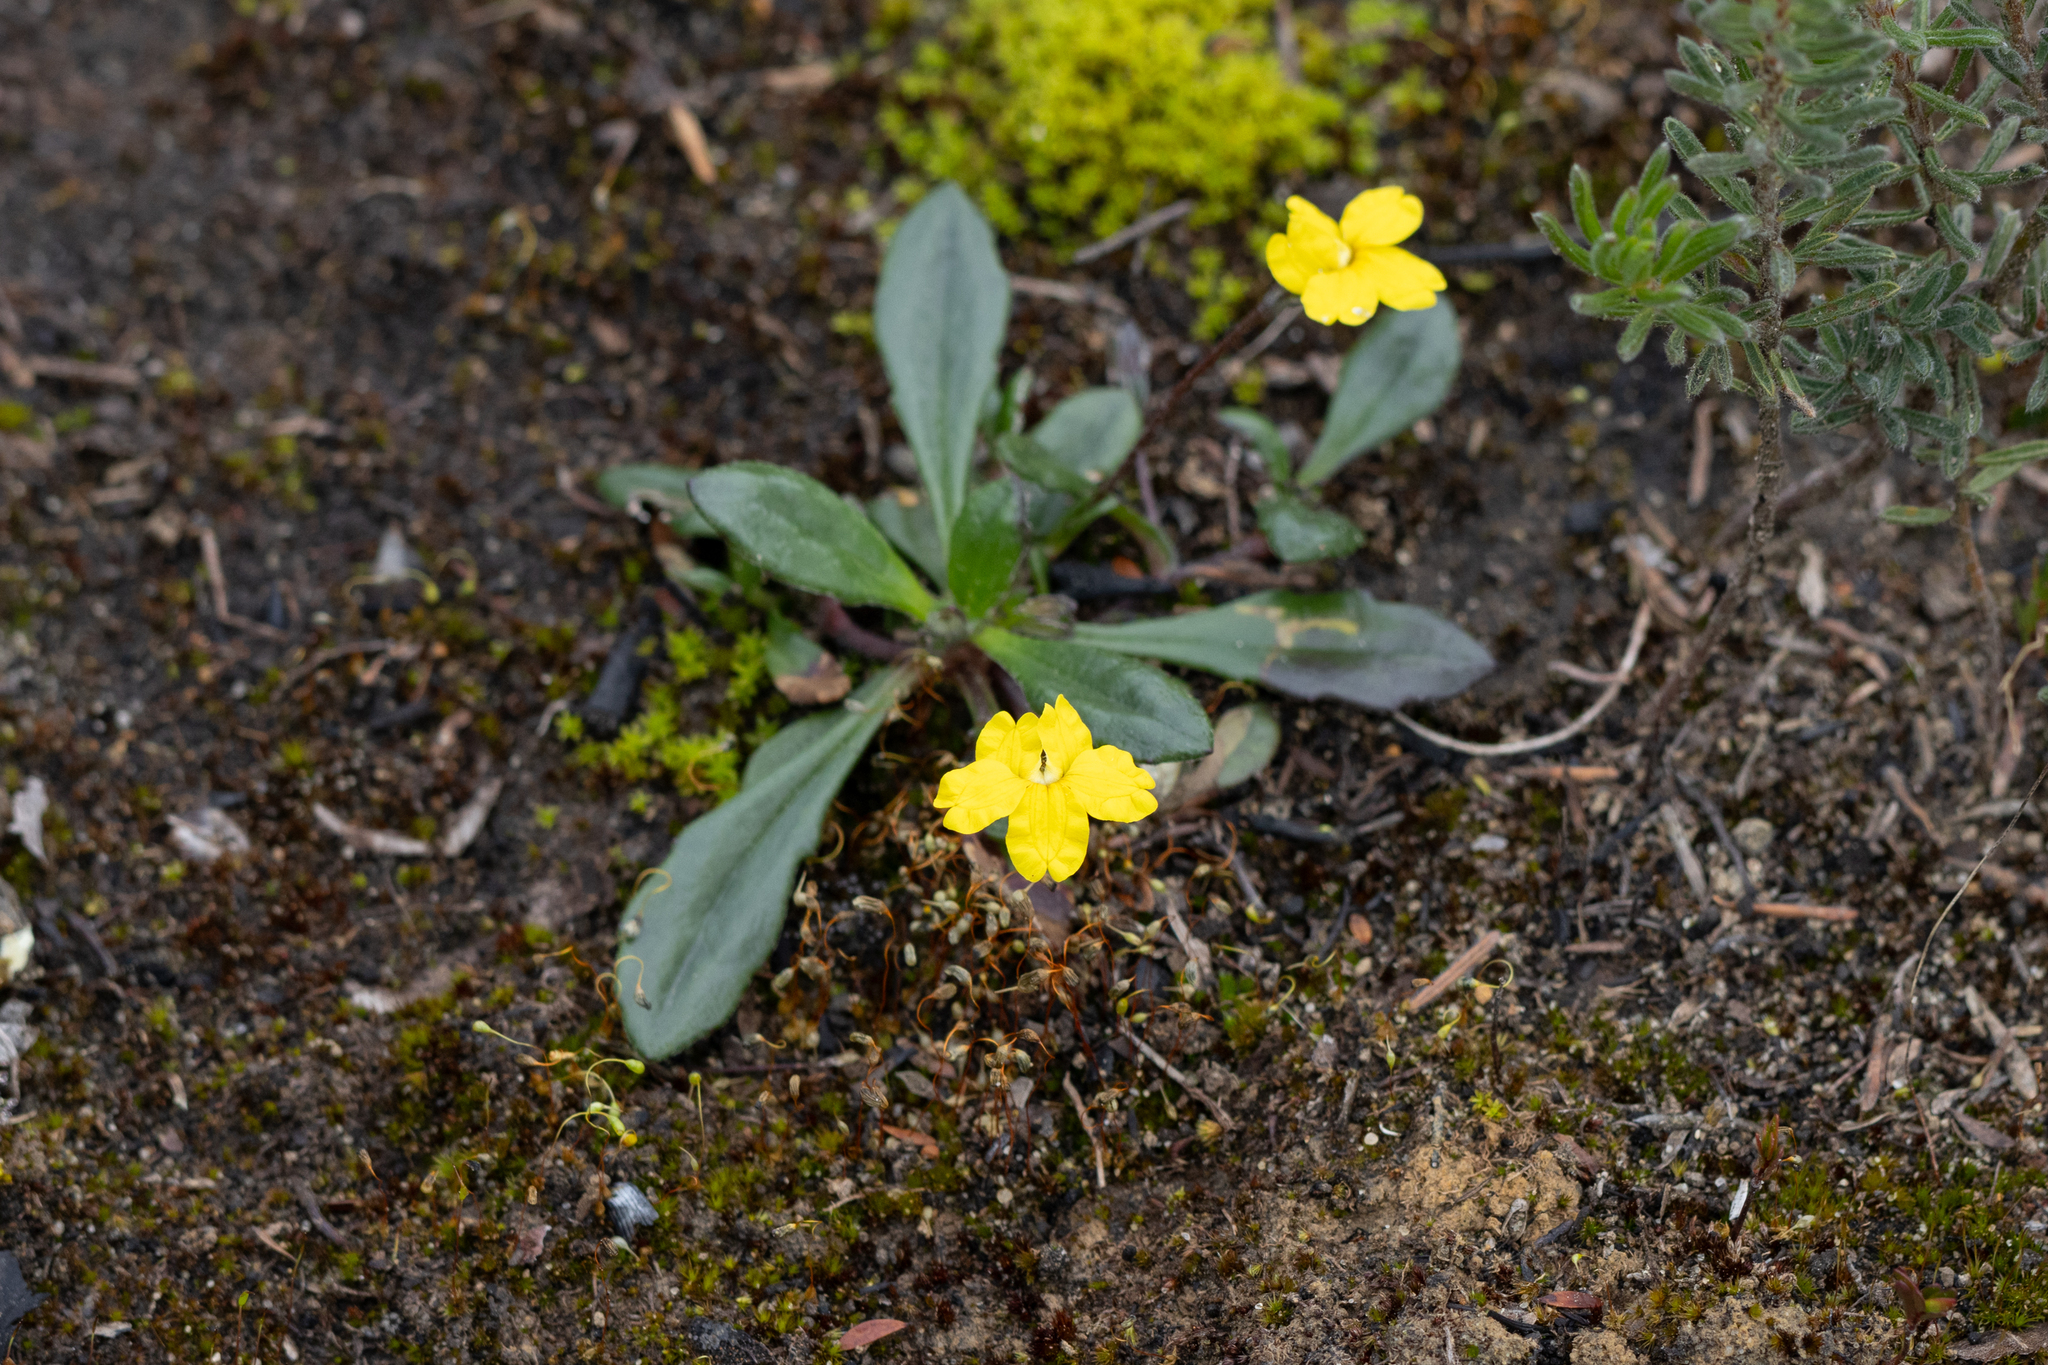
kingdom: Plantae
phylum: Tracheophyta
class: Magnoliopsida
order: Asterales
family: Goodeniaceae
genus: Goodenia
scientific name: Goodenia blackiana
